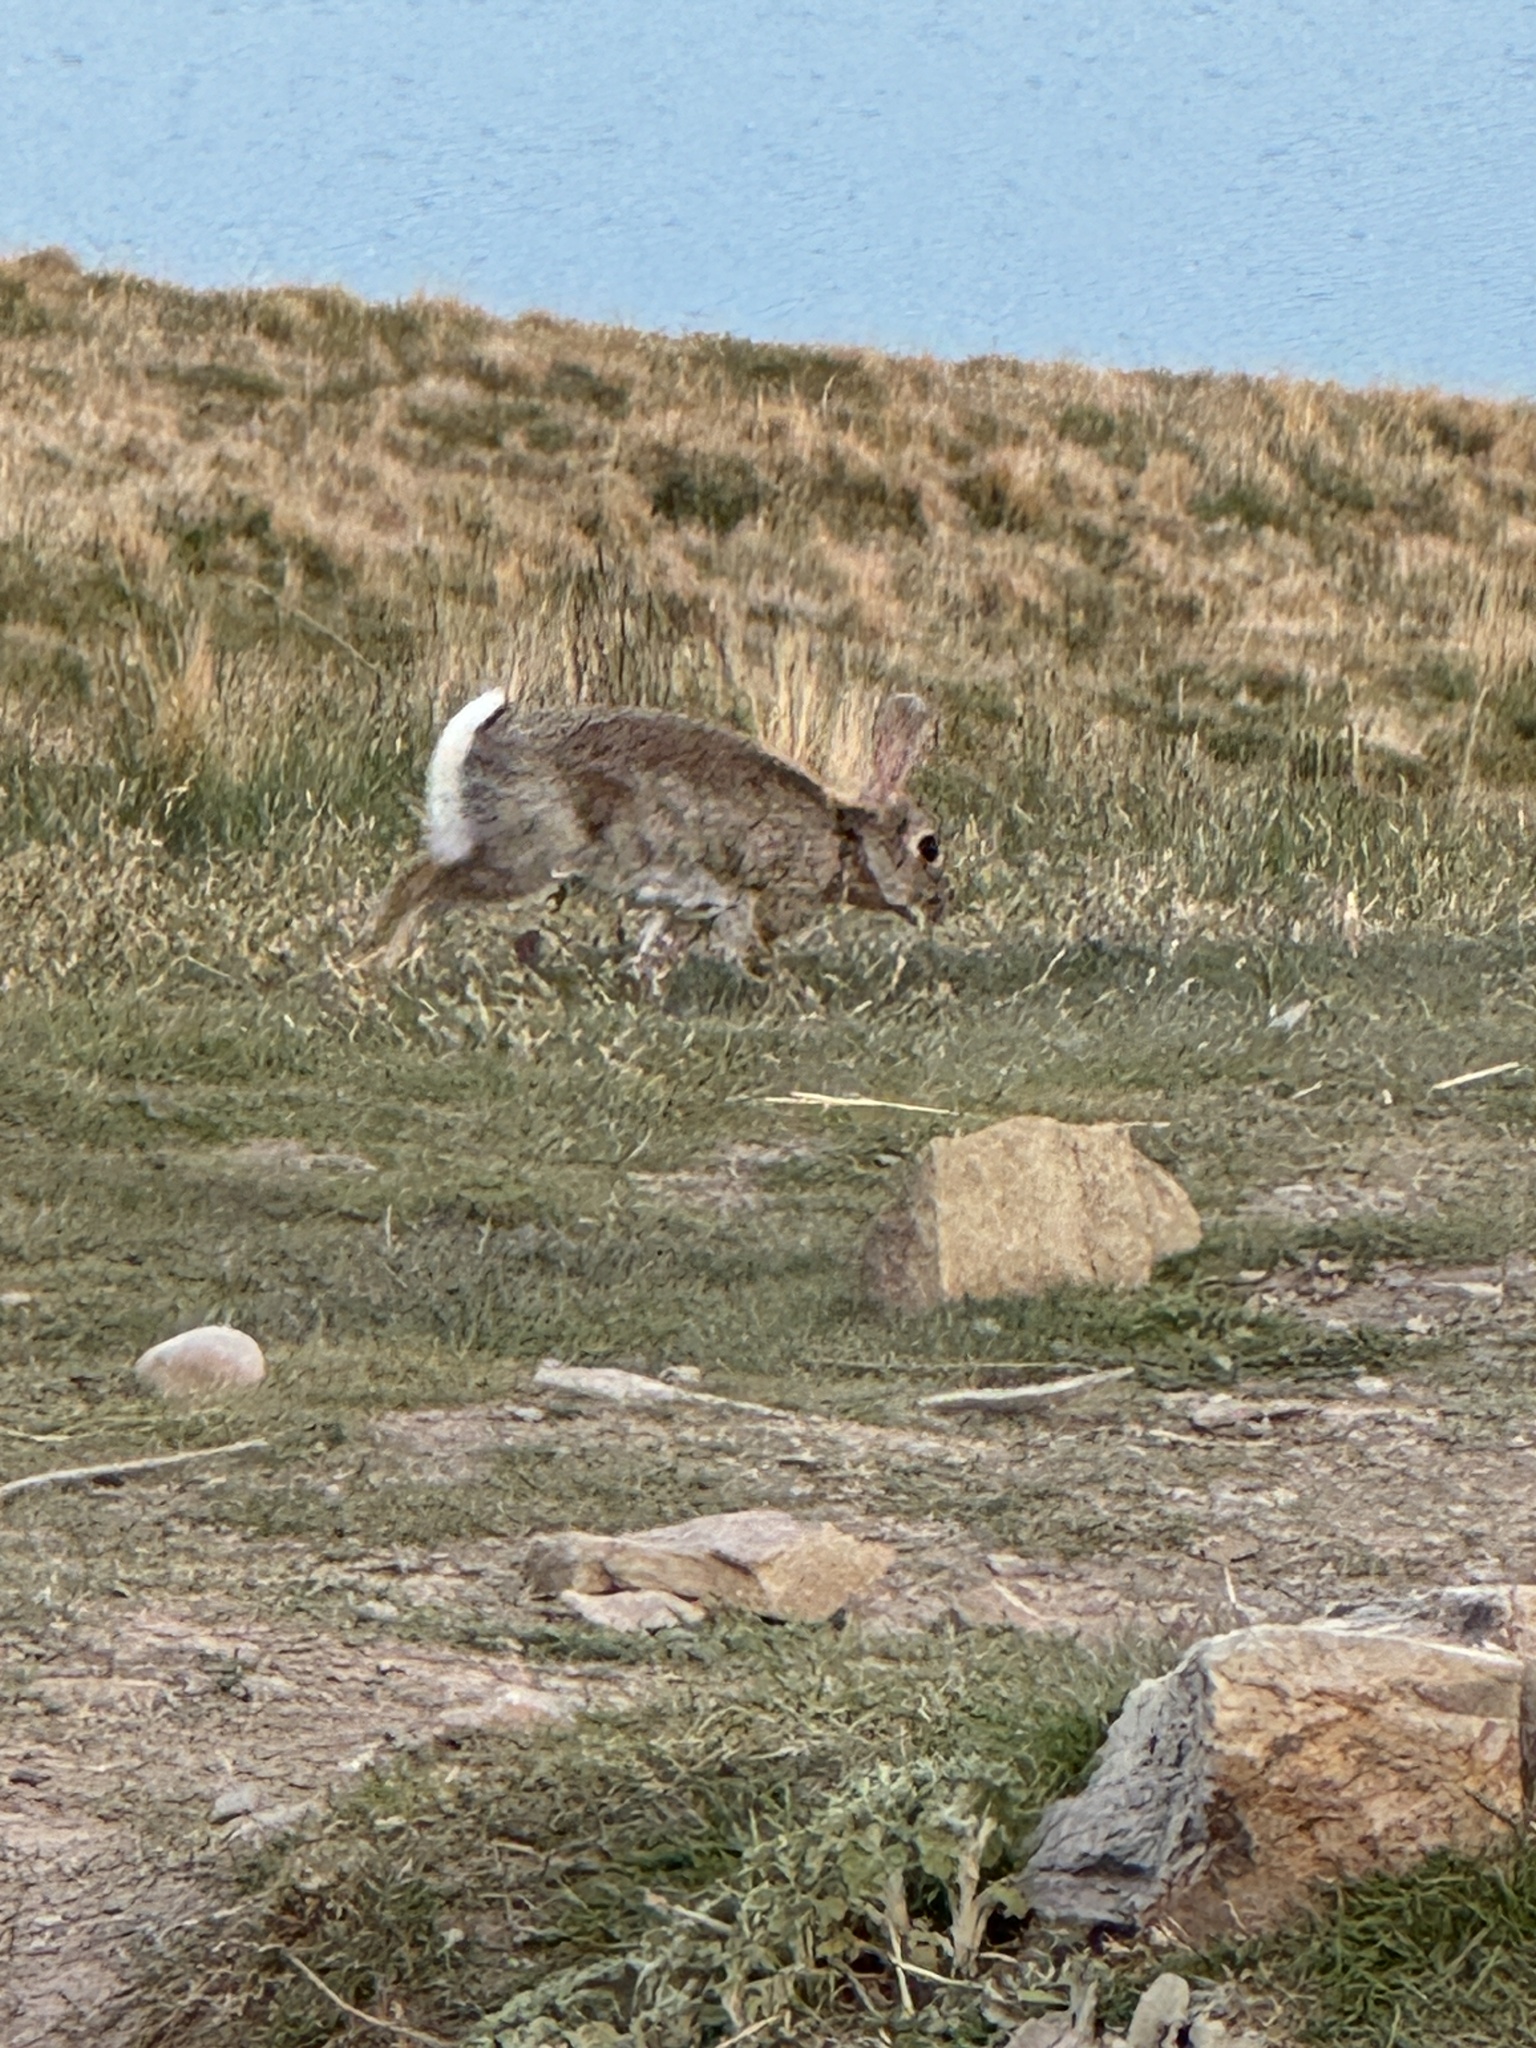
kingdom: Animalia
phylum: Chordata
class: Mammalia
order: Lagomorpha
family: Leporidae
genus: Oryctolagus
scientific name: Oryctolagus cuniculus
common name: European rabbit
